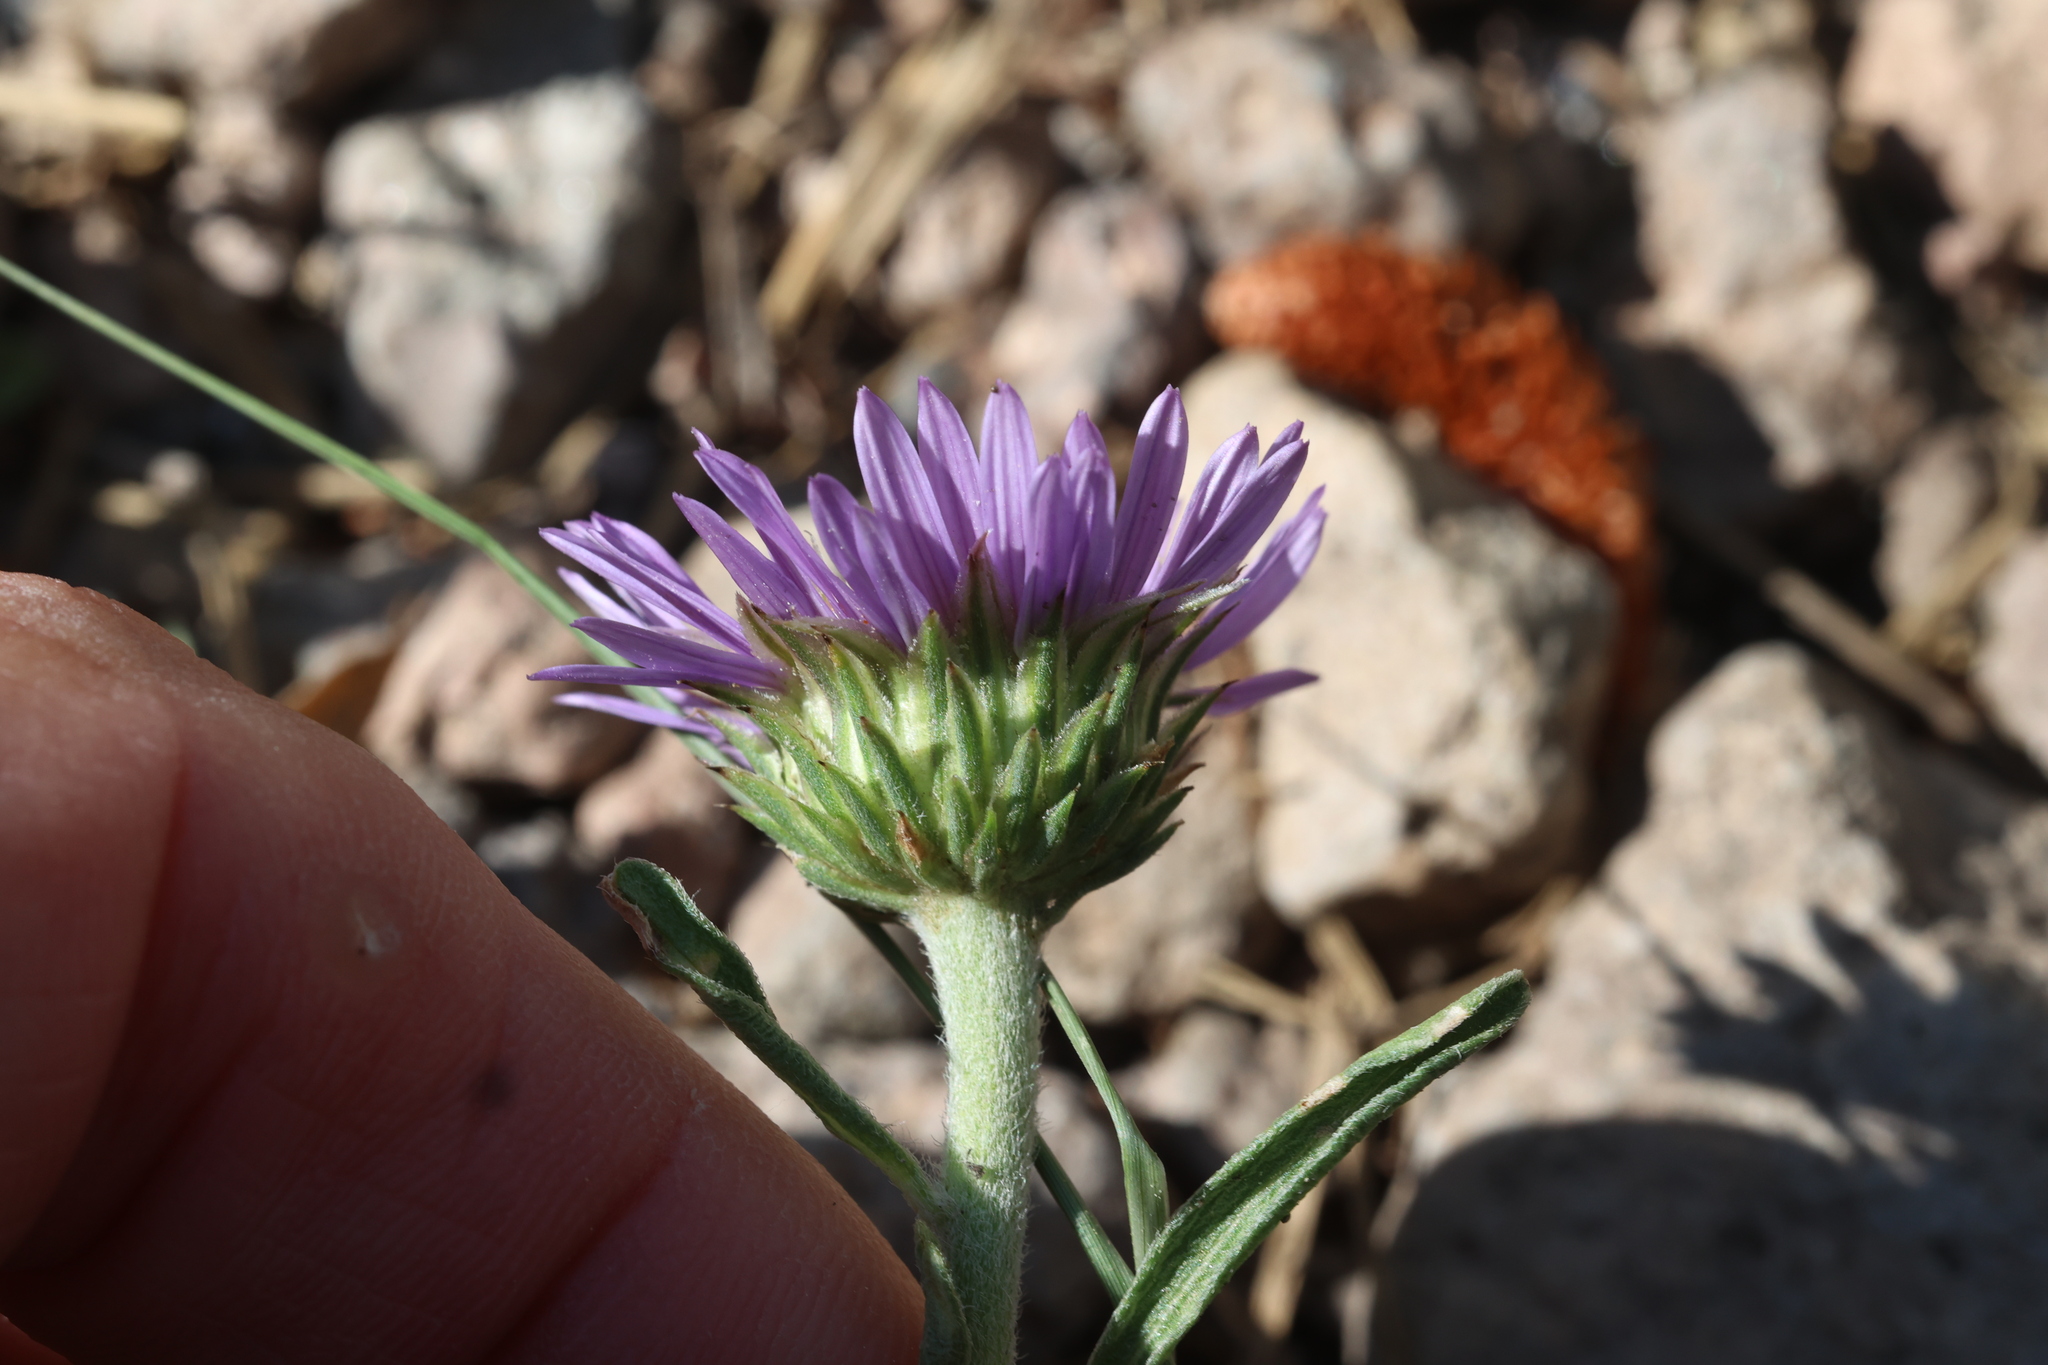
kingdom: Plantae
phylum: Tracheophyta
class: Magnoliopsida
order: Asterales
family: Asteraceae
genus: Townsendia
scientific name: Townsendia eximia
